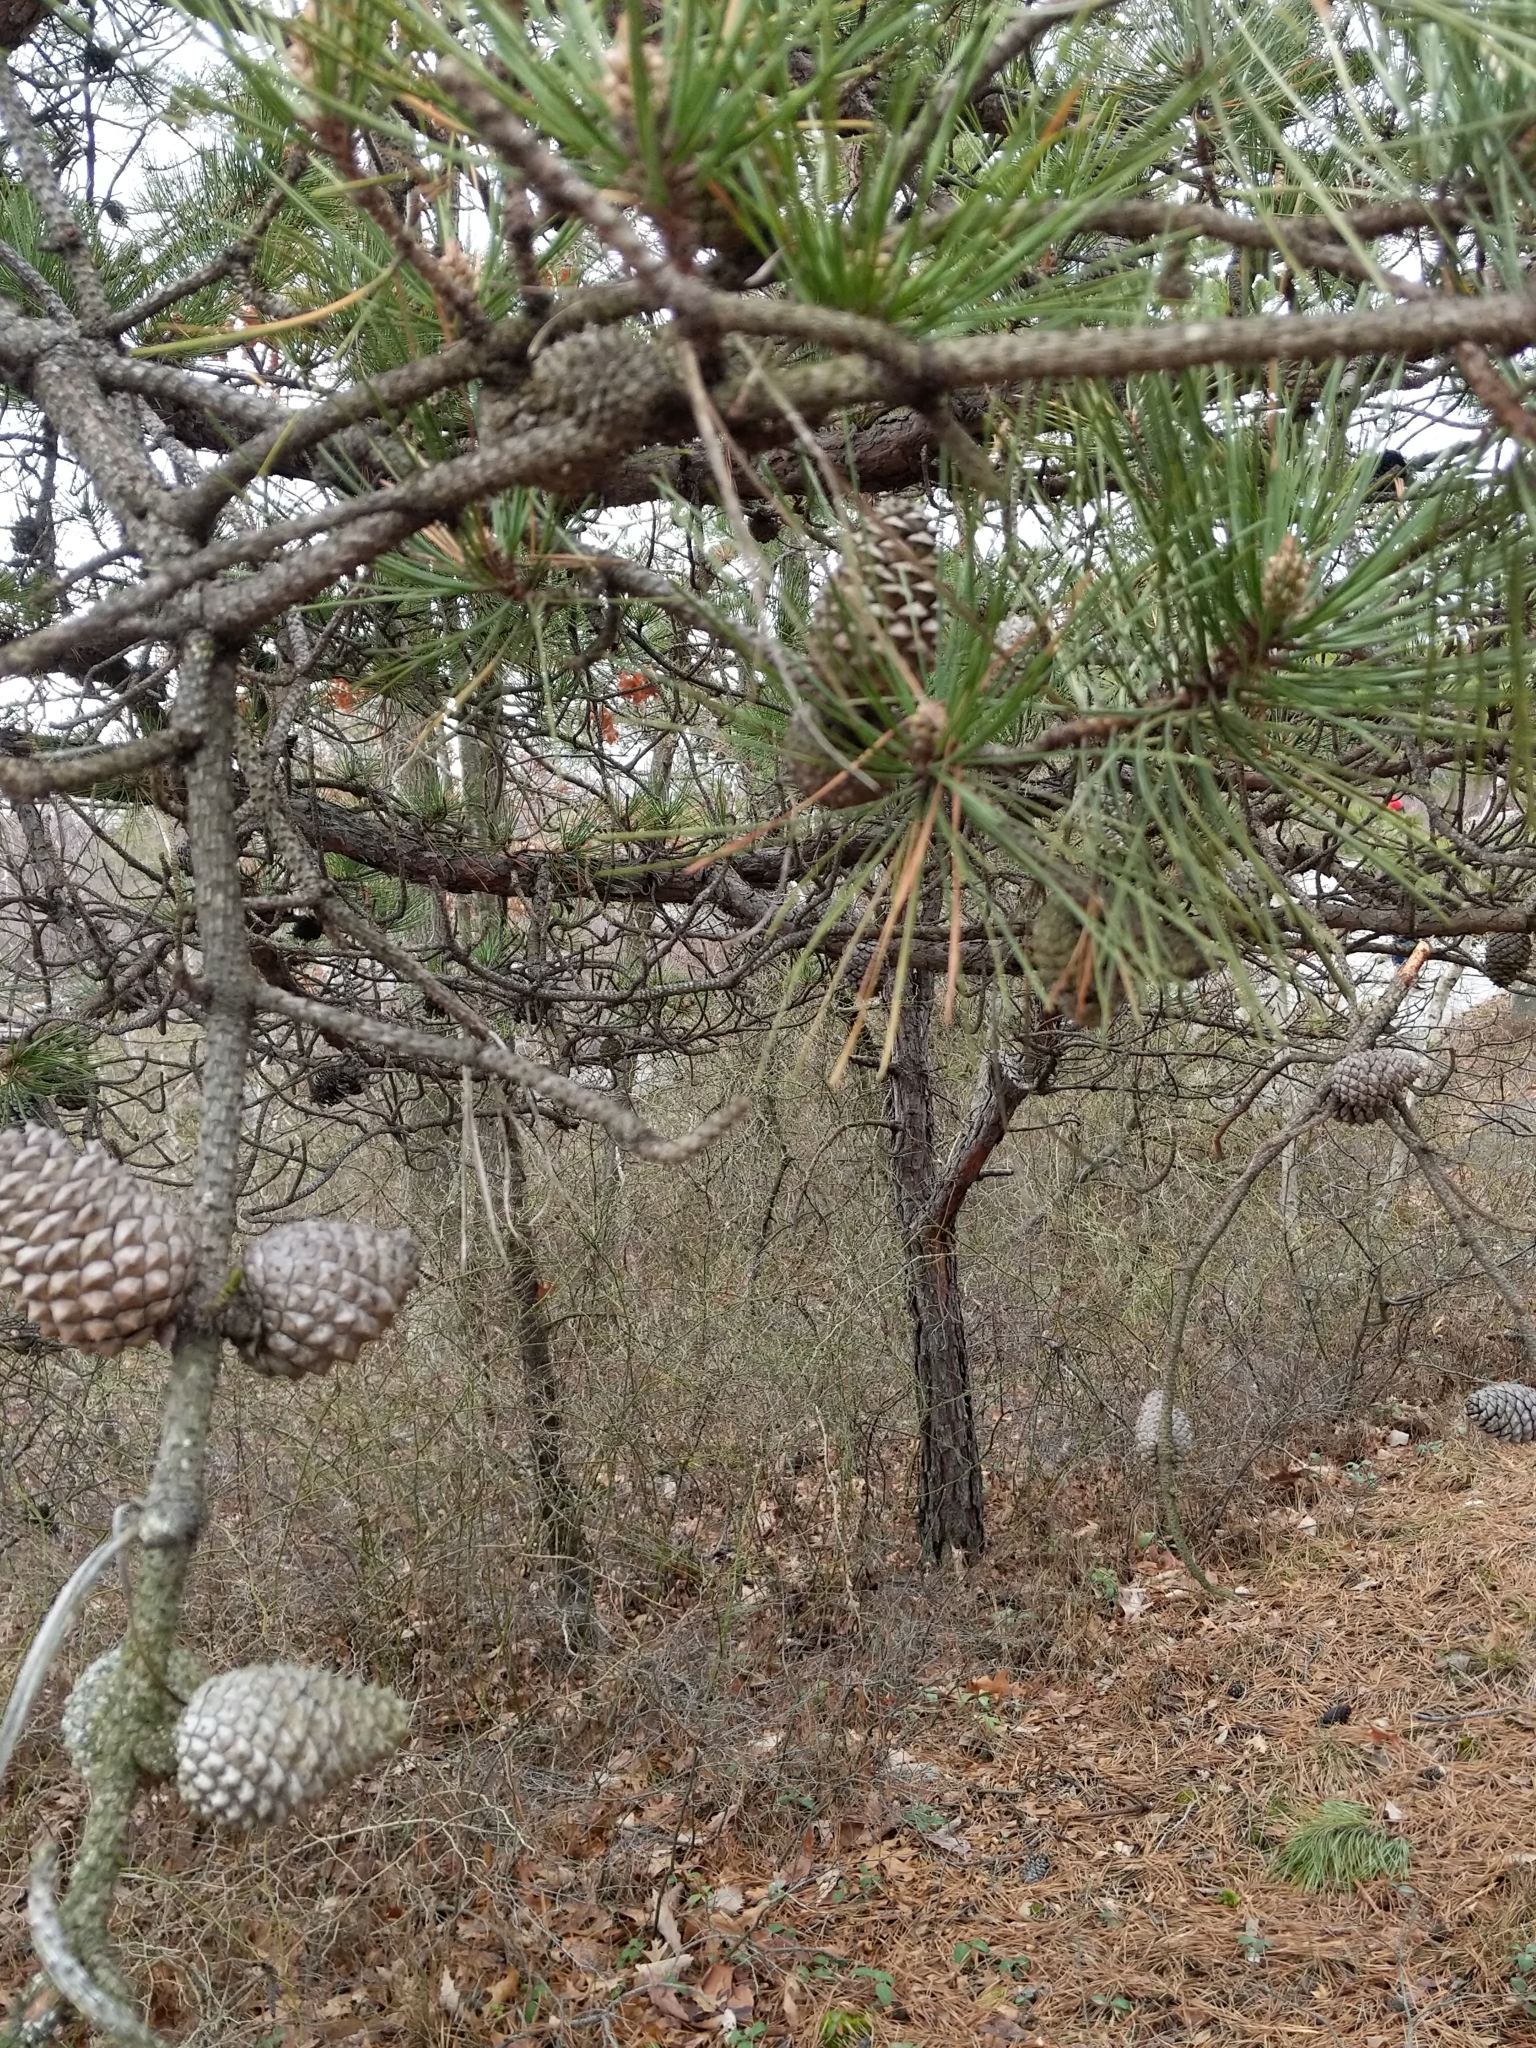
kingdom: Plantae
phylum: Tracheophyta
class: Pinopsida
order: Pinales
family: Pinaceae
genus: Pinus
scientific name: Pinus rigida
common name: Pitch pine
